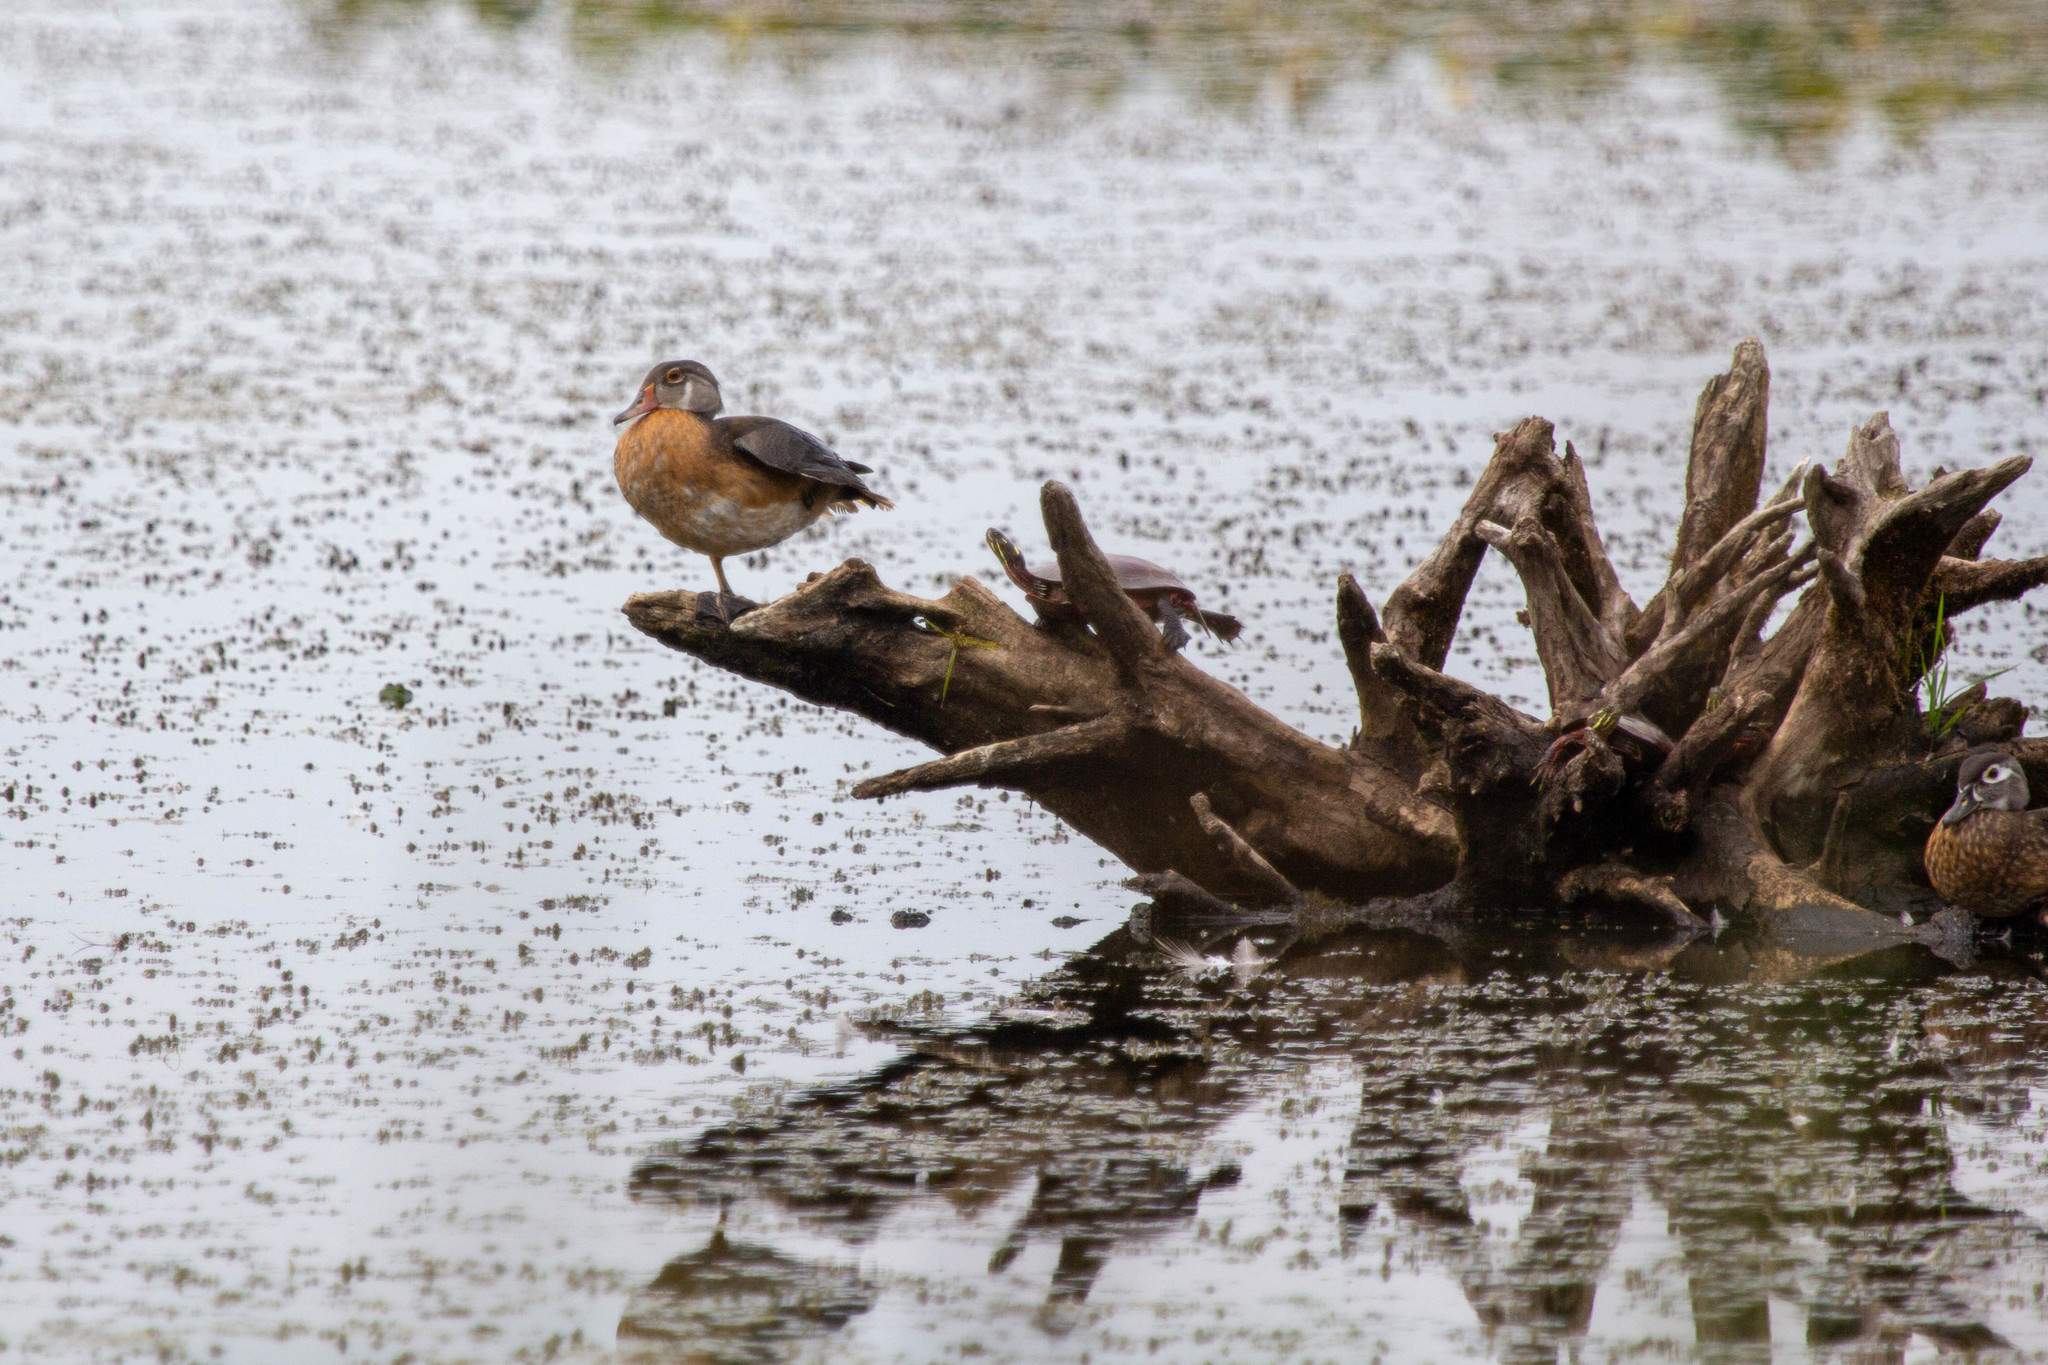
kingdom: Animalia
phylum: Chordata
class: Aves
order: Anseriformes
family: Anatidae
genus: Aix
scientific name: Aix sponsa
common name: Wood duck
